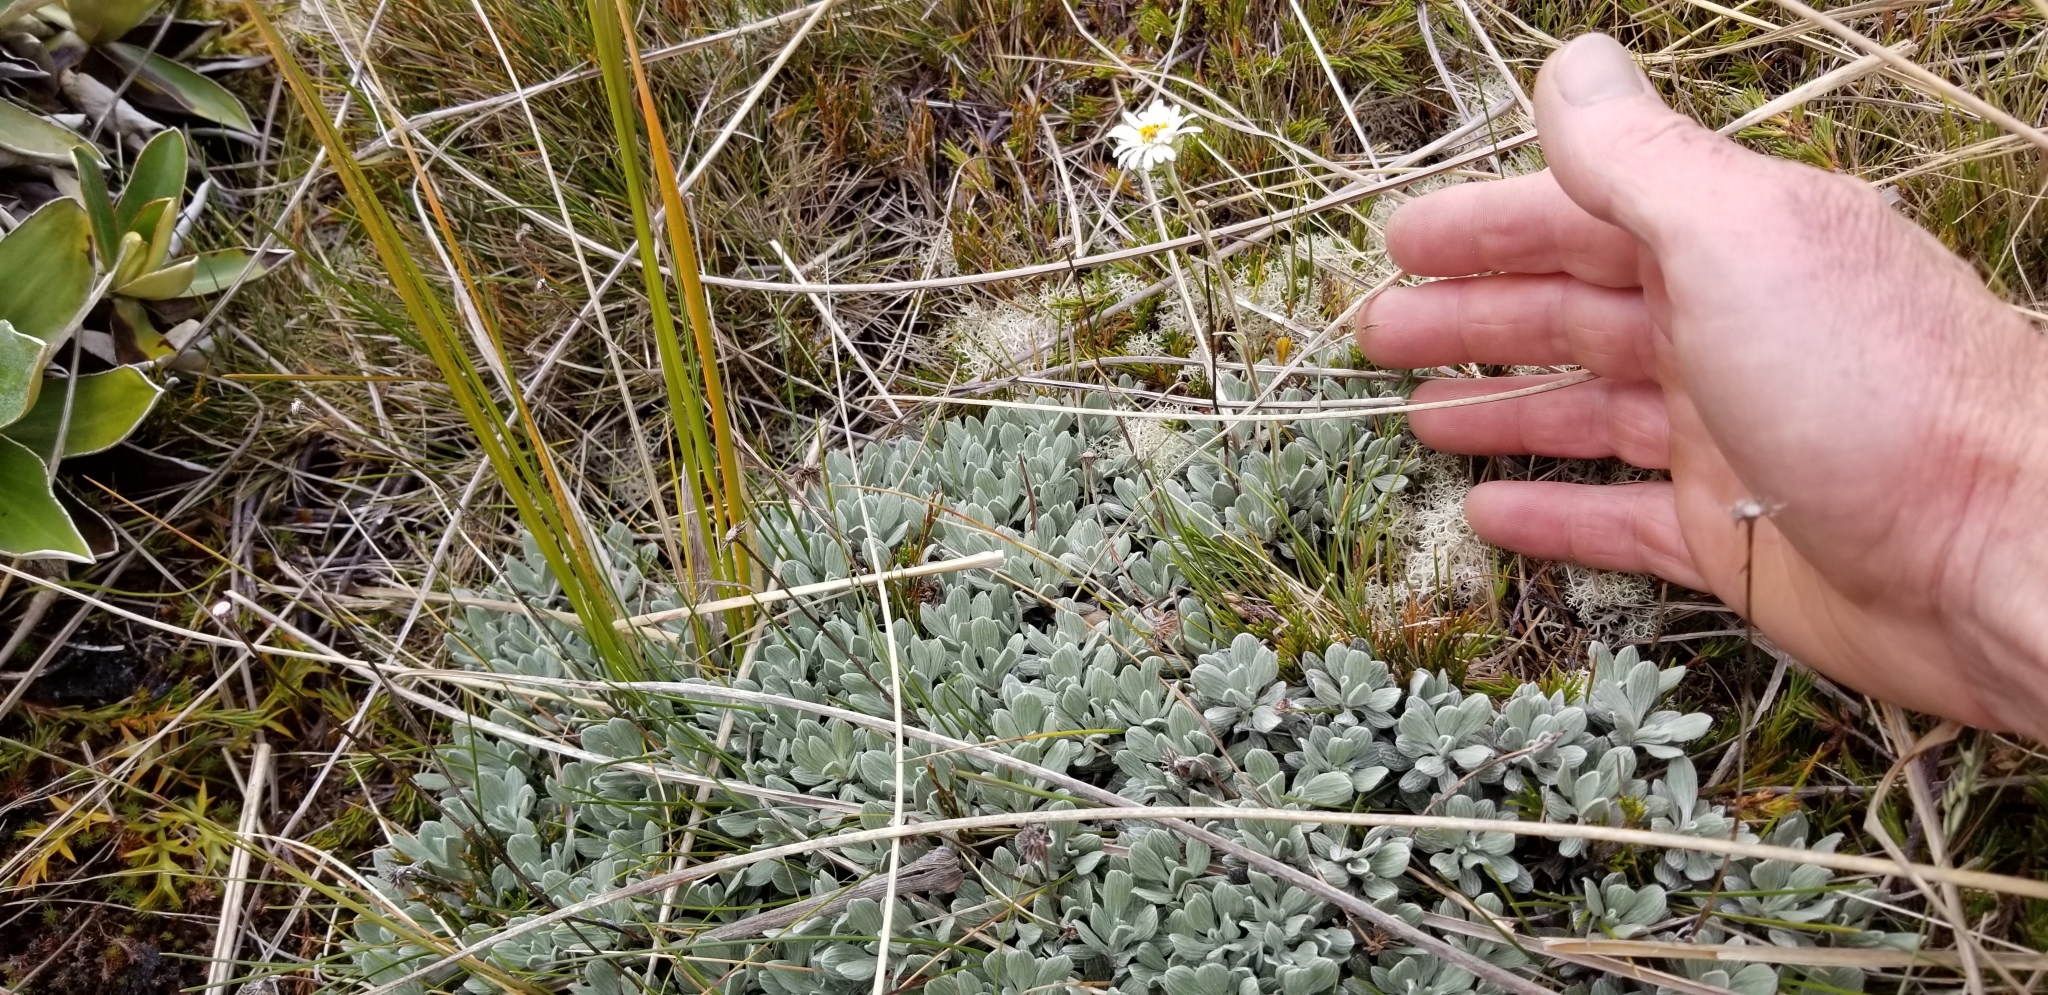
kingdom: Plantae
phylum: Tracheophyta
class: Magnoliopsida
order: Asterales
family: Asteraceae
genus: Celmisia
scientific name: Celmisia discolor
